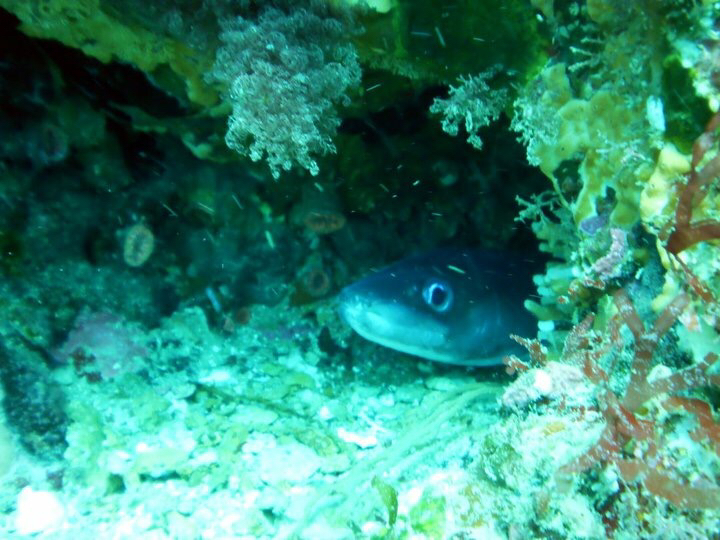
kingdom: Animalia
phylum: Chordata
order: Anguilliformes
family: Congridae
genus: Conger
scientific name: Conger verreauxi
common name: Conger eel
